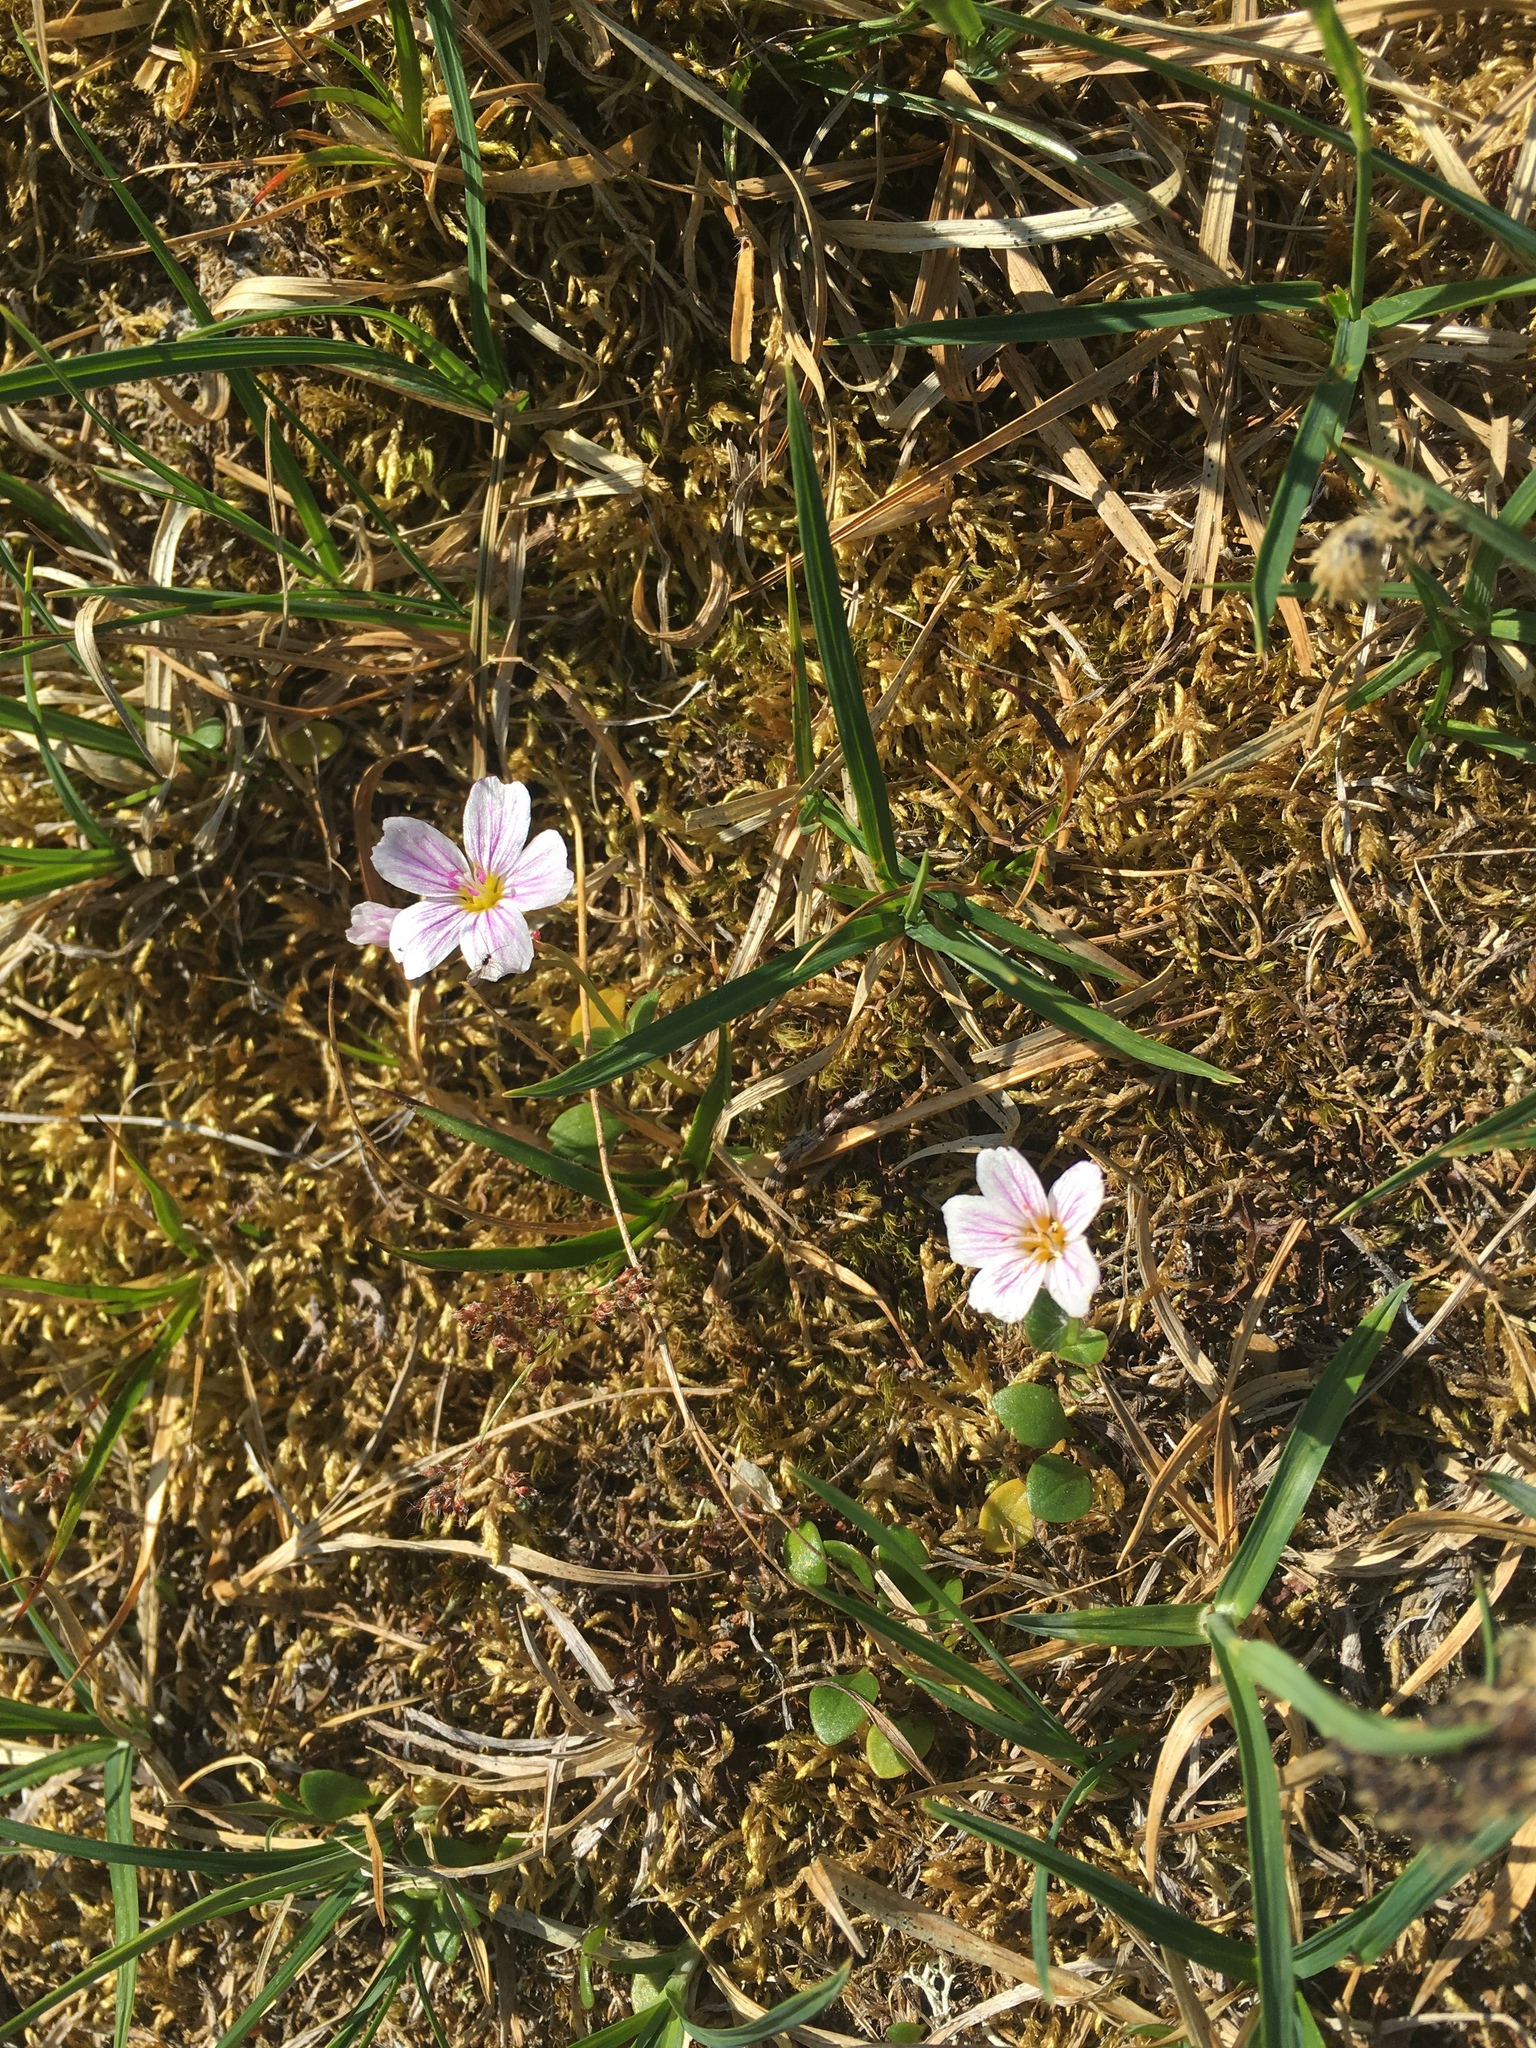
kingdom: Plantae
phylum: Tracheophyta
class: Magnoliopsida
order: Caryophyllales
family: Montiaceae
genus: Claytonia
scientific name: Claytonia sarmentosa
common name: Alaska spring beauty
